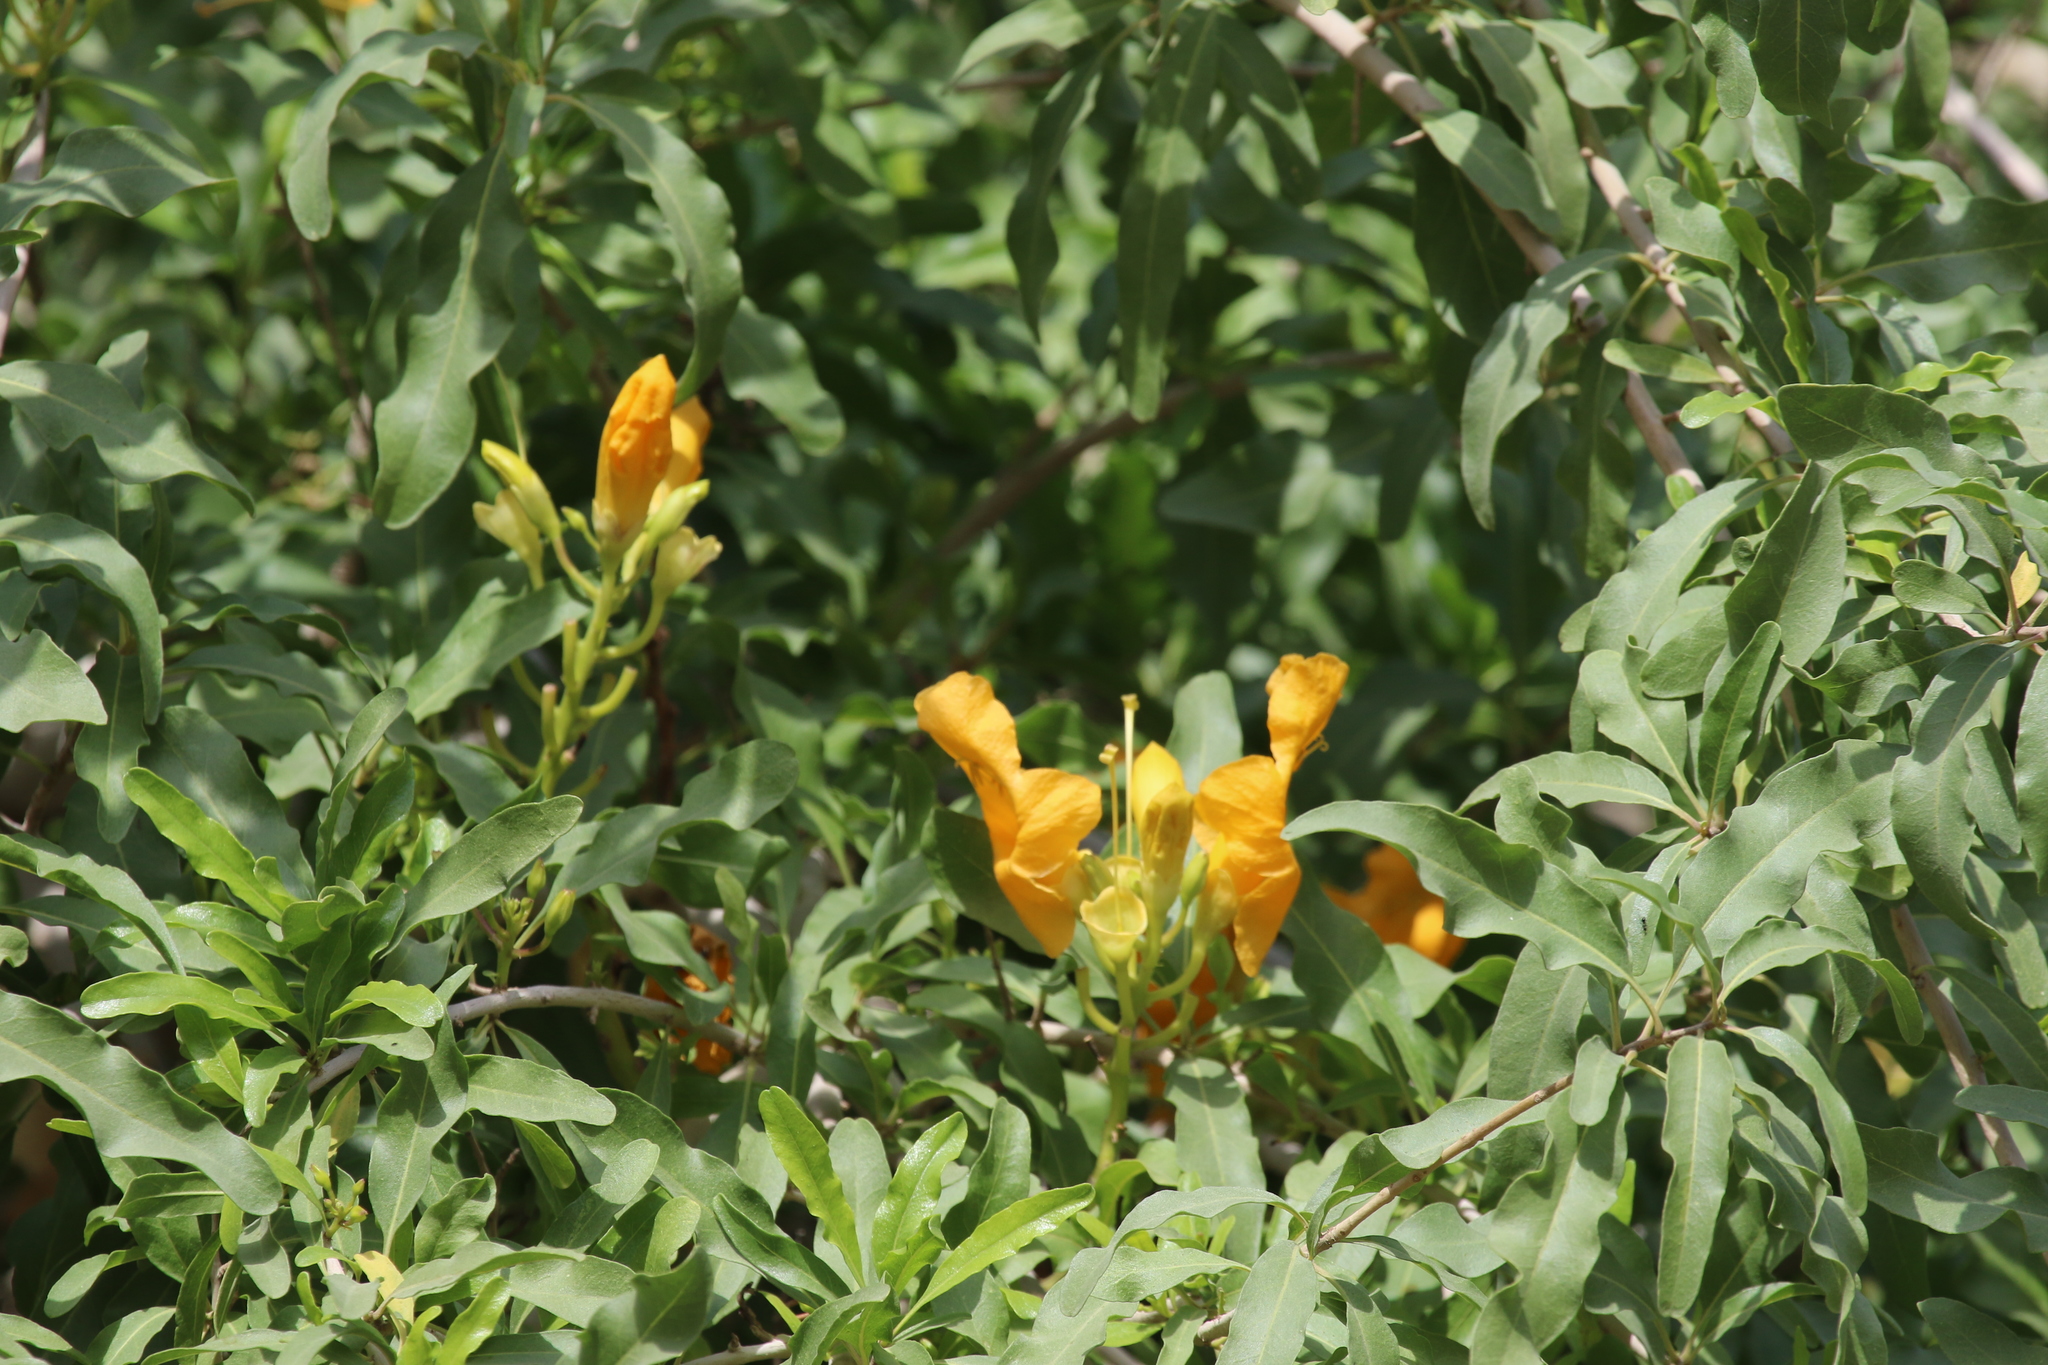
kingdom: Plantae
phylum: Tracheophyta
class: Magnoliopsida
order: Lamiales
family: Bignoniaceae
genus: Tecomella
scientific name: Tecomella undulata
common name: Desert teak
